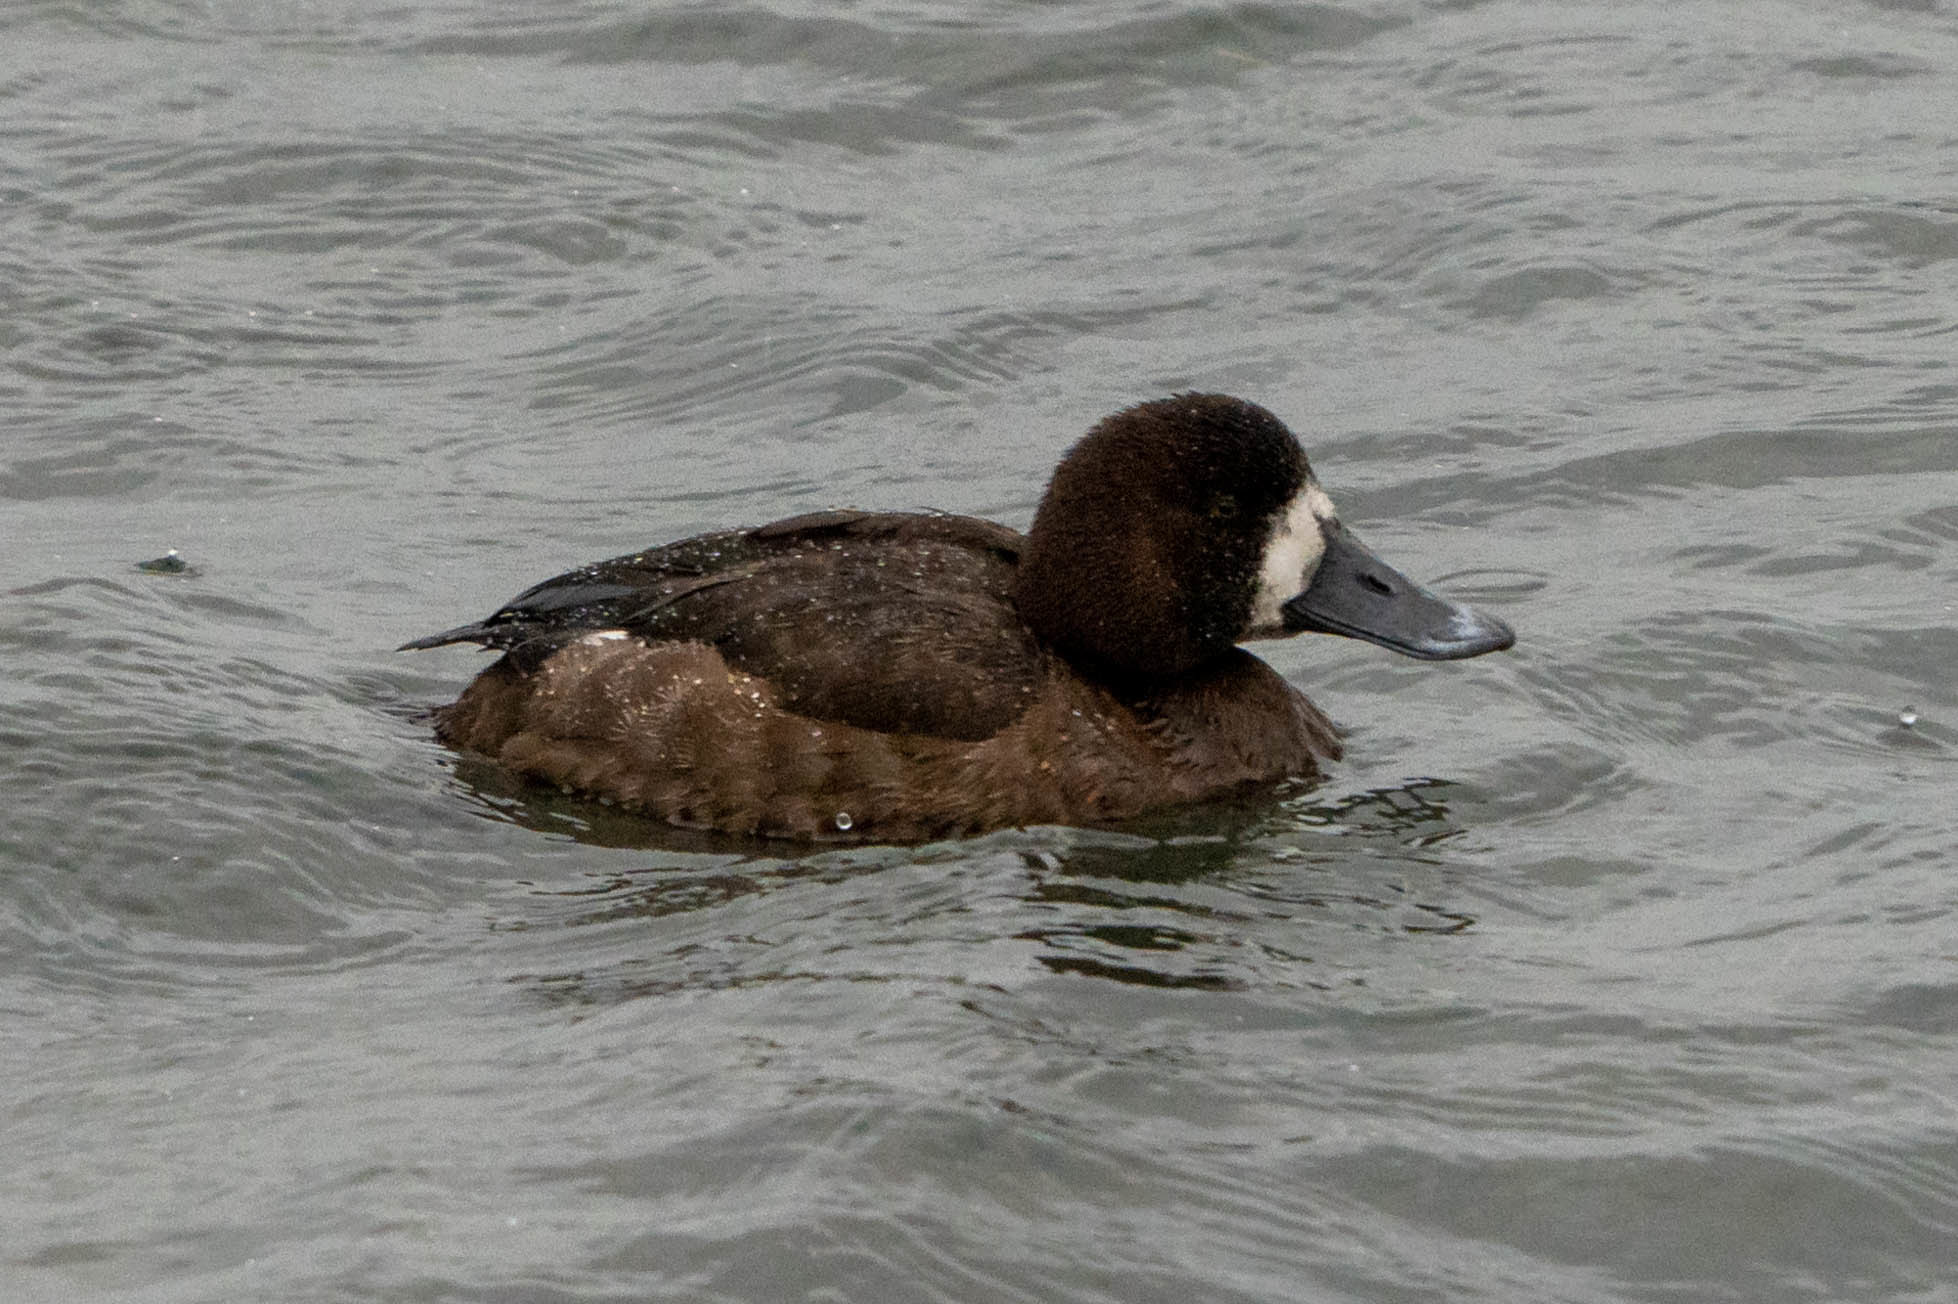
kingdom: Animalia
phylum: Chordata
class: Aves
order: Anseriformes
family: Anatidae
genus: Aythya
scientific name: Aythya marila
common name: Greater scaup
